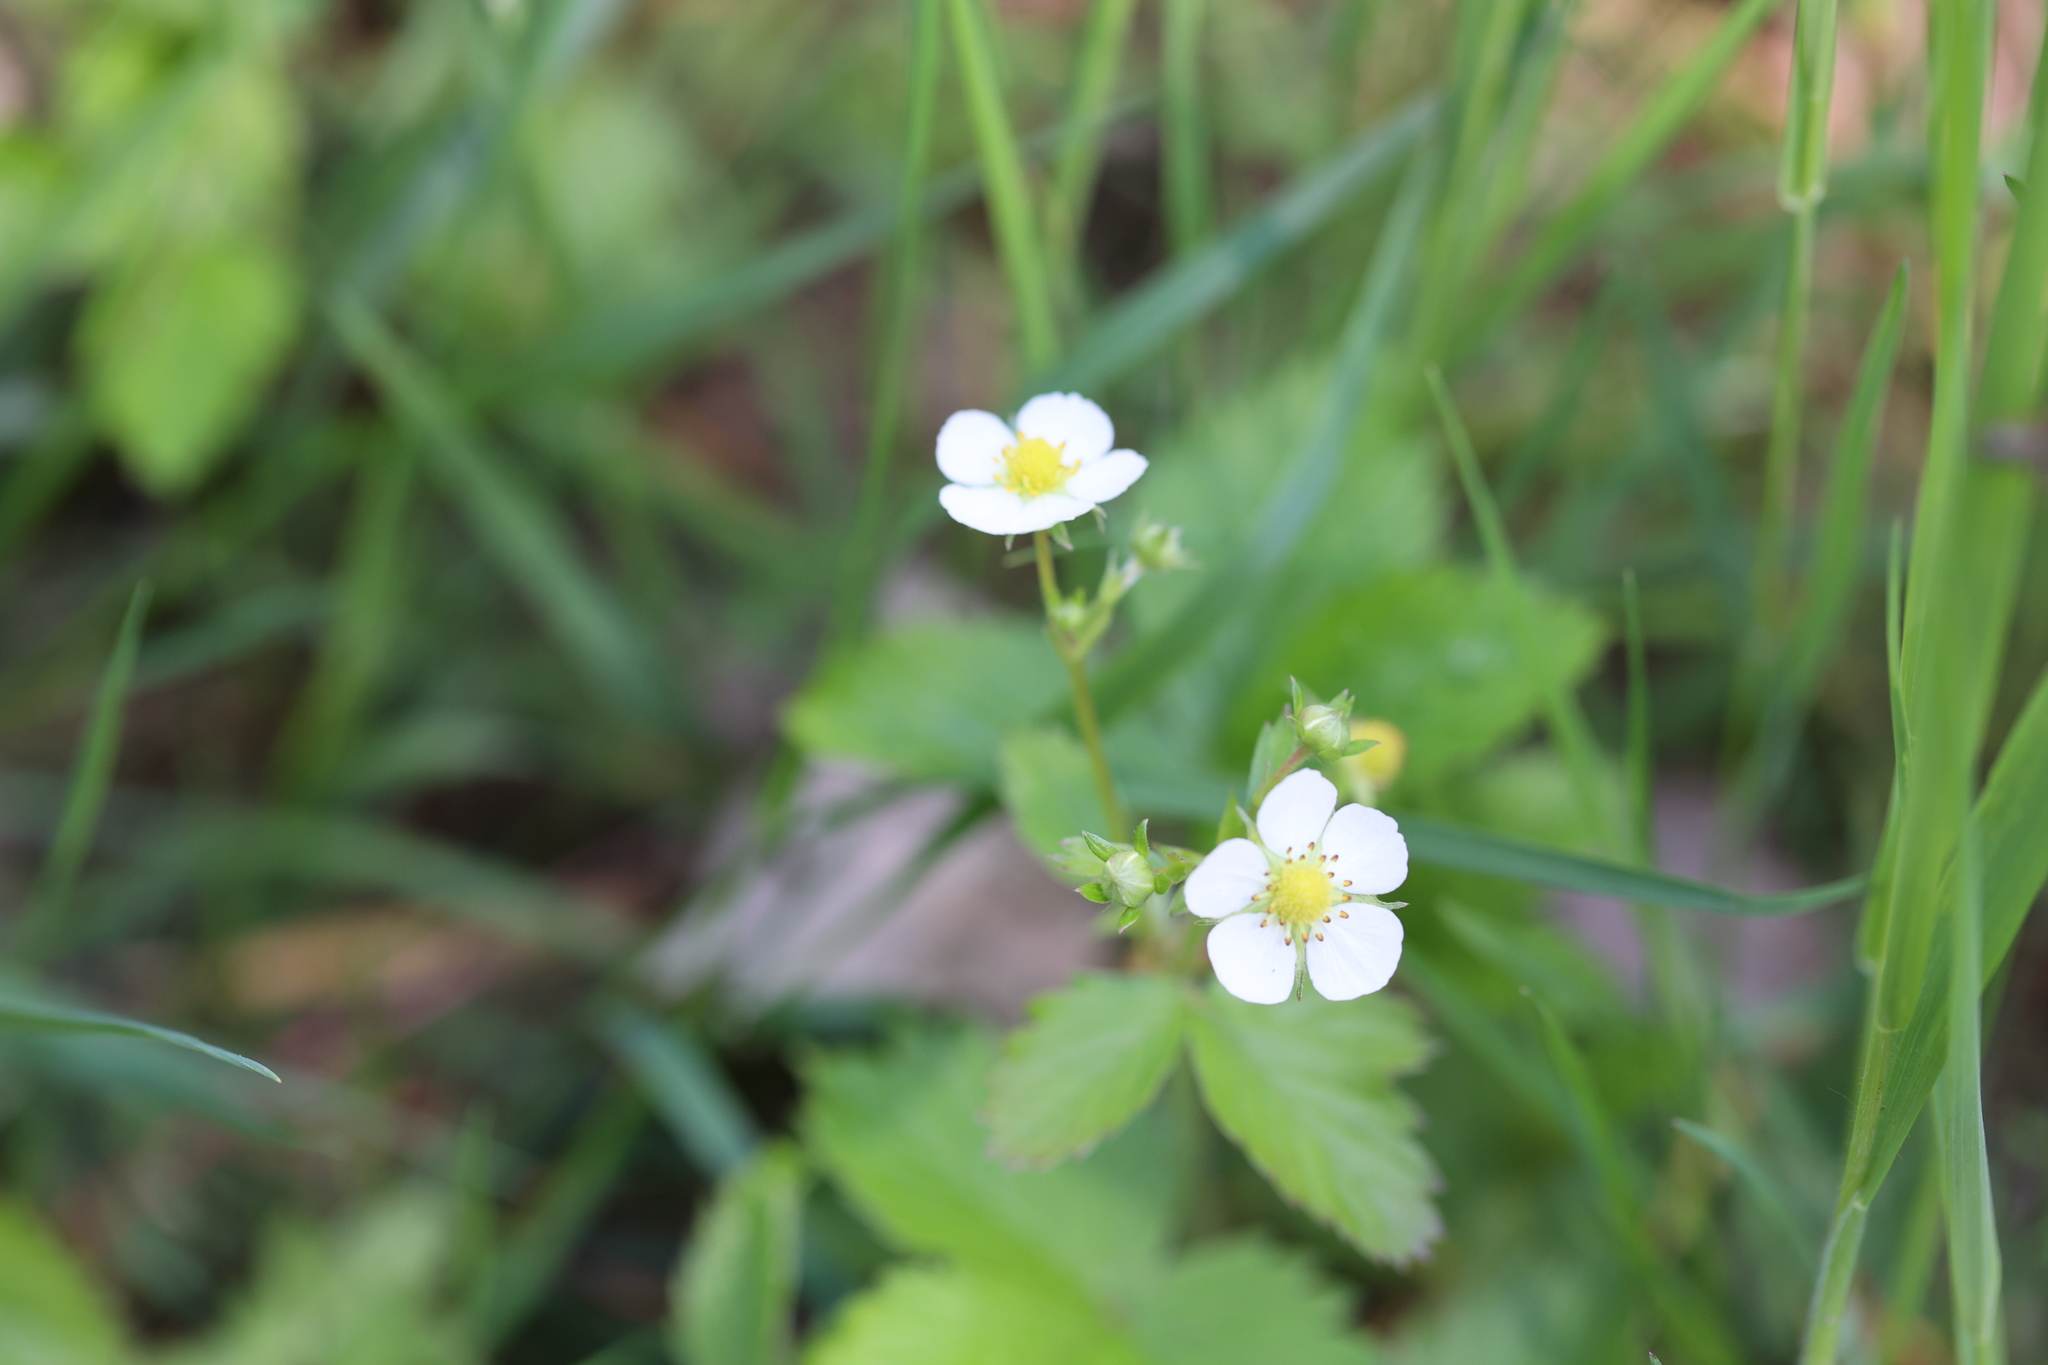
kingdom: Plantae
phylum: Tracheophyta
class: Magnoliopsida
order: Rosales
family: Rosaceae
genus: Fragaria
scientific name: Fragaria vesca
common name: Wild strawberry
